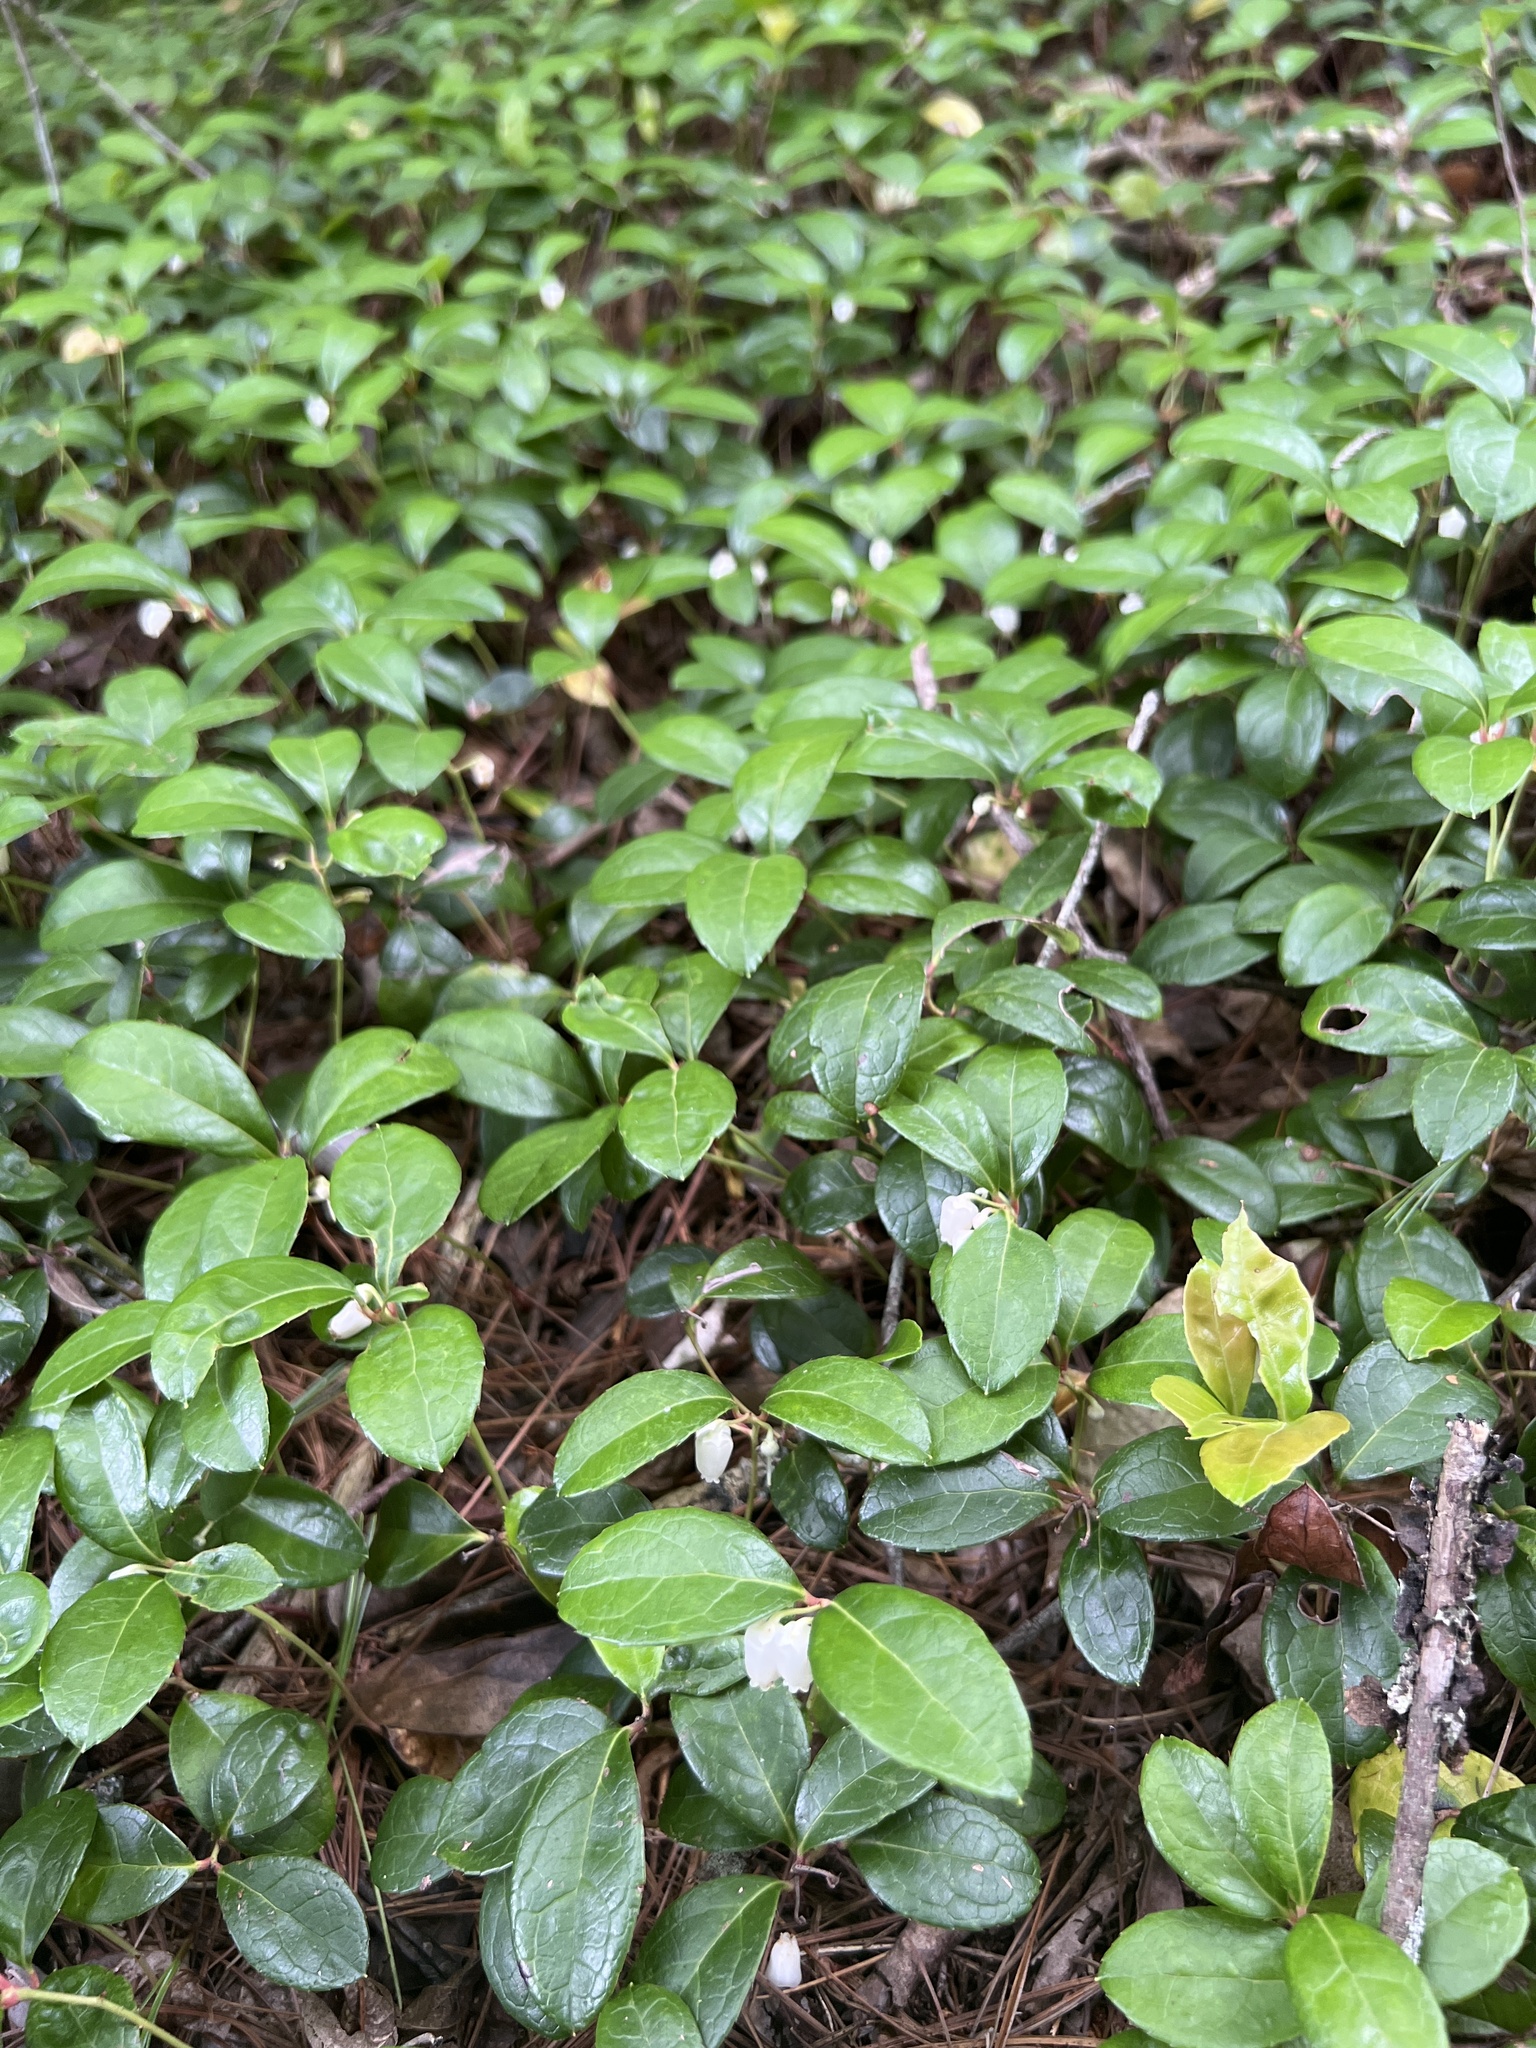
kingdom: Plantae
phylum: Tracheophyta
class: Magnoliopsida
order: Ericales
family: Ericaceae
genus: Gaultheria
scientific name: Gaultheria procumbens
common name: Checkerberry
